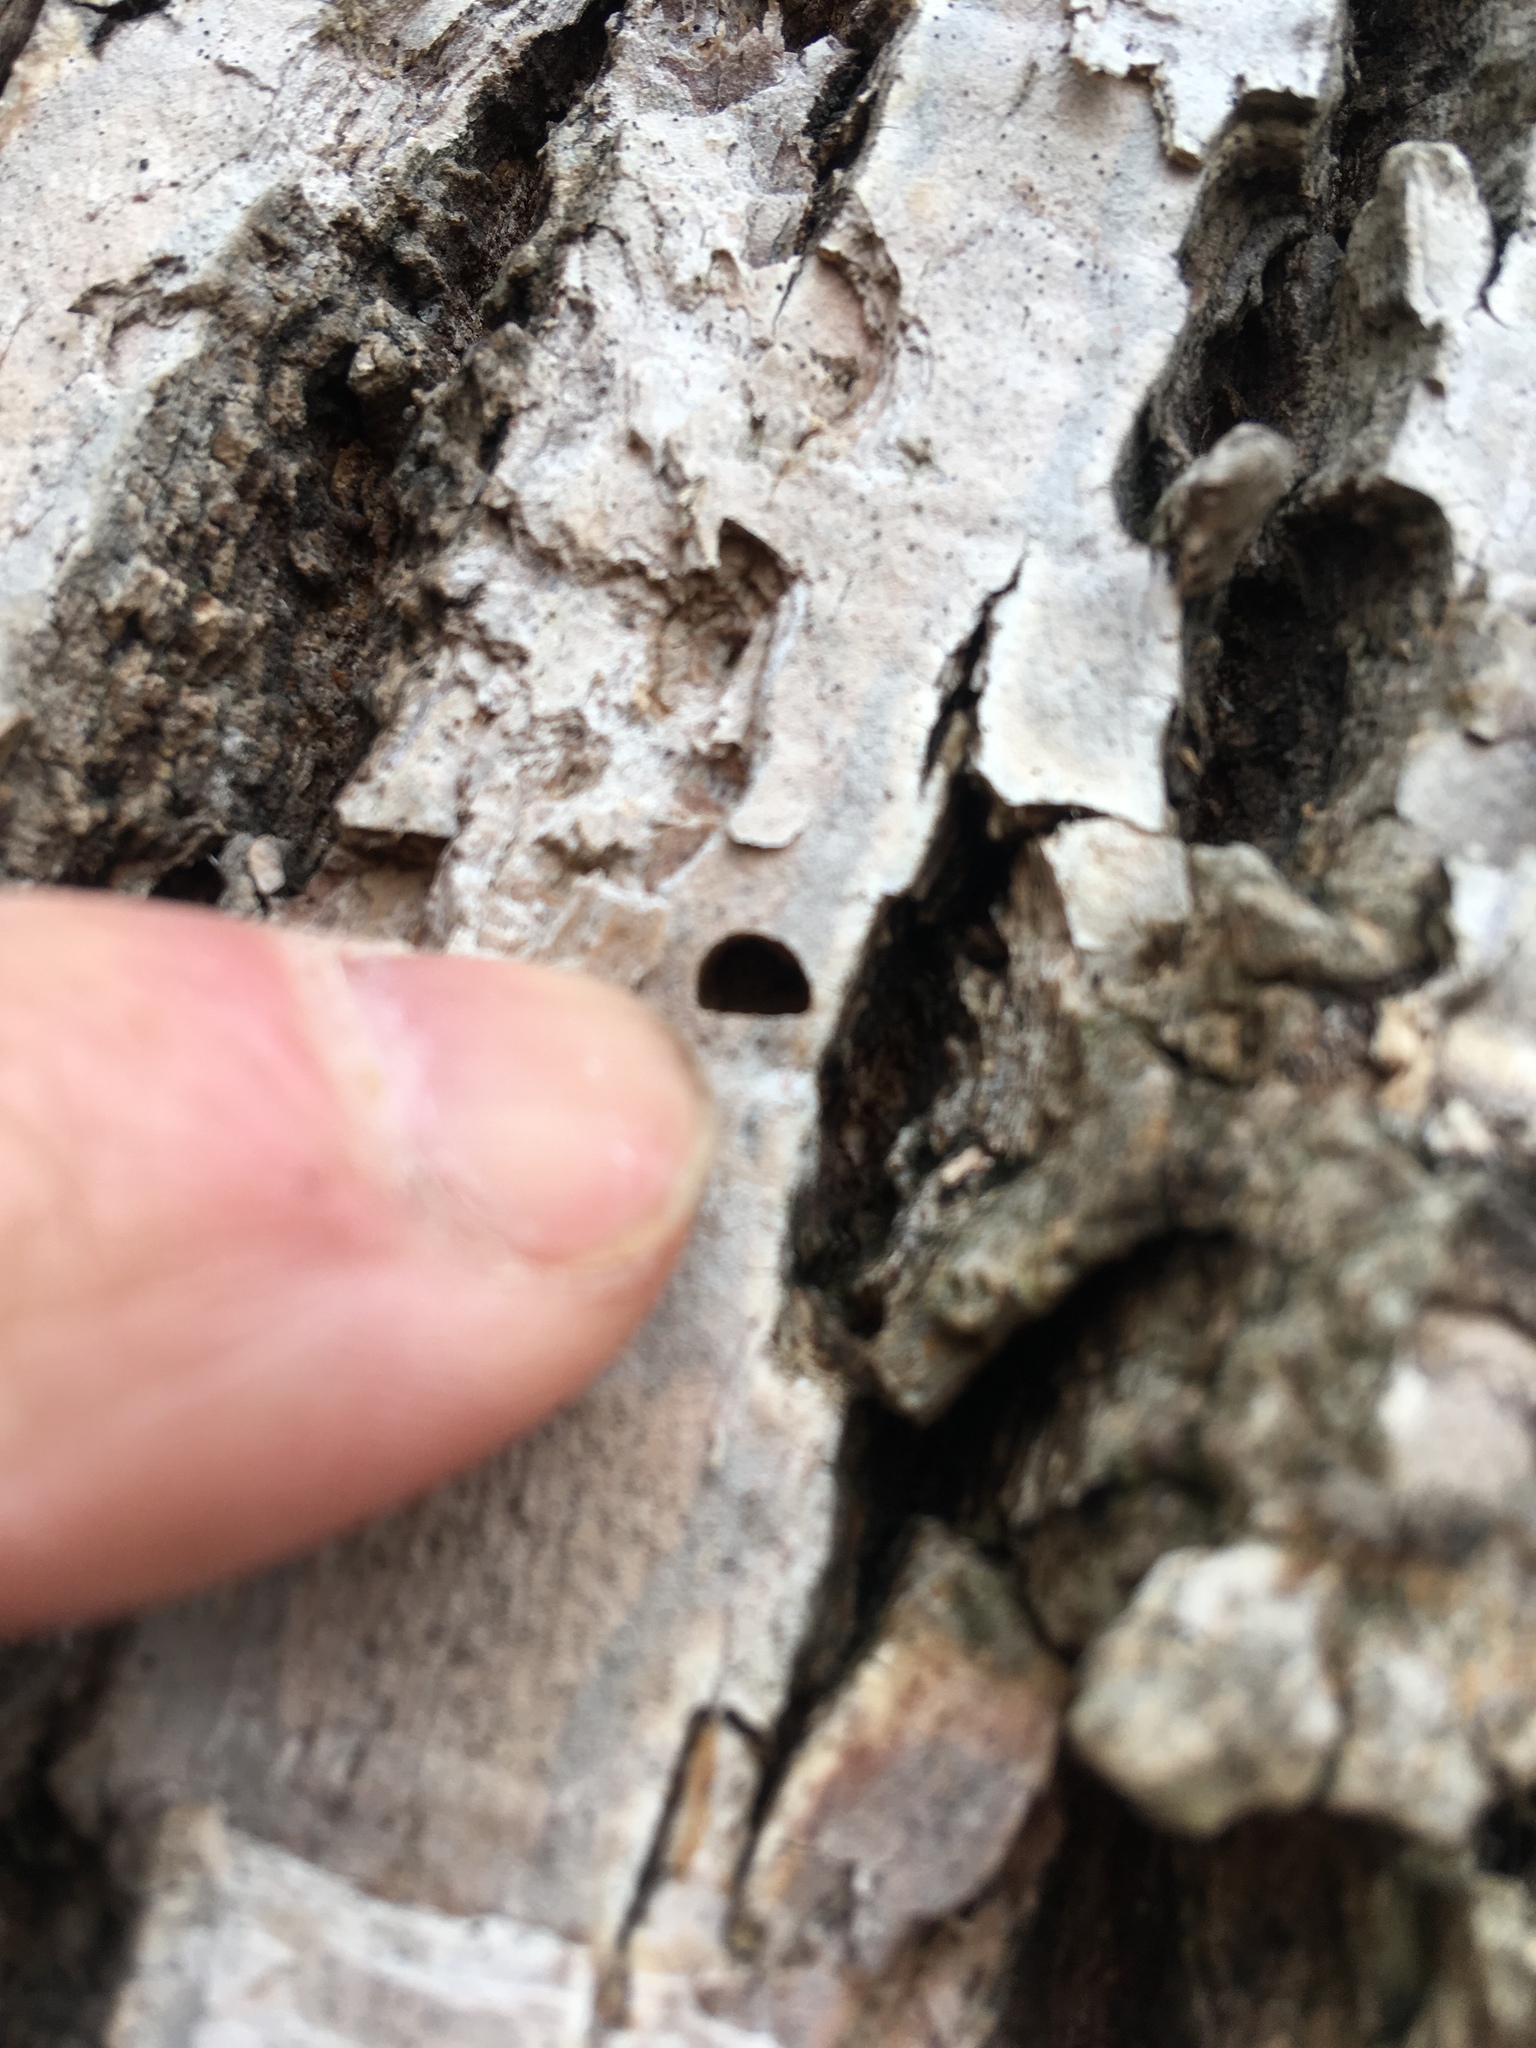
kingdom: Plantae
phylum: Tracheophyta
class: Magnoliopsida
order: Lamiales
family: Oleaceae
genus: Fraxinus
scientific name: Fraxinus pennsylvanica
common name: Green ash
